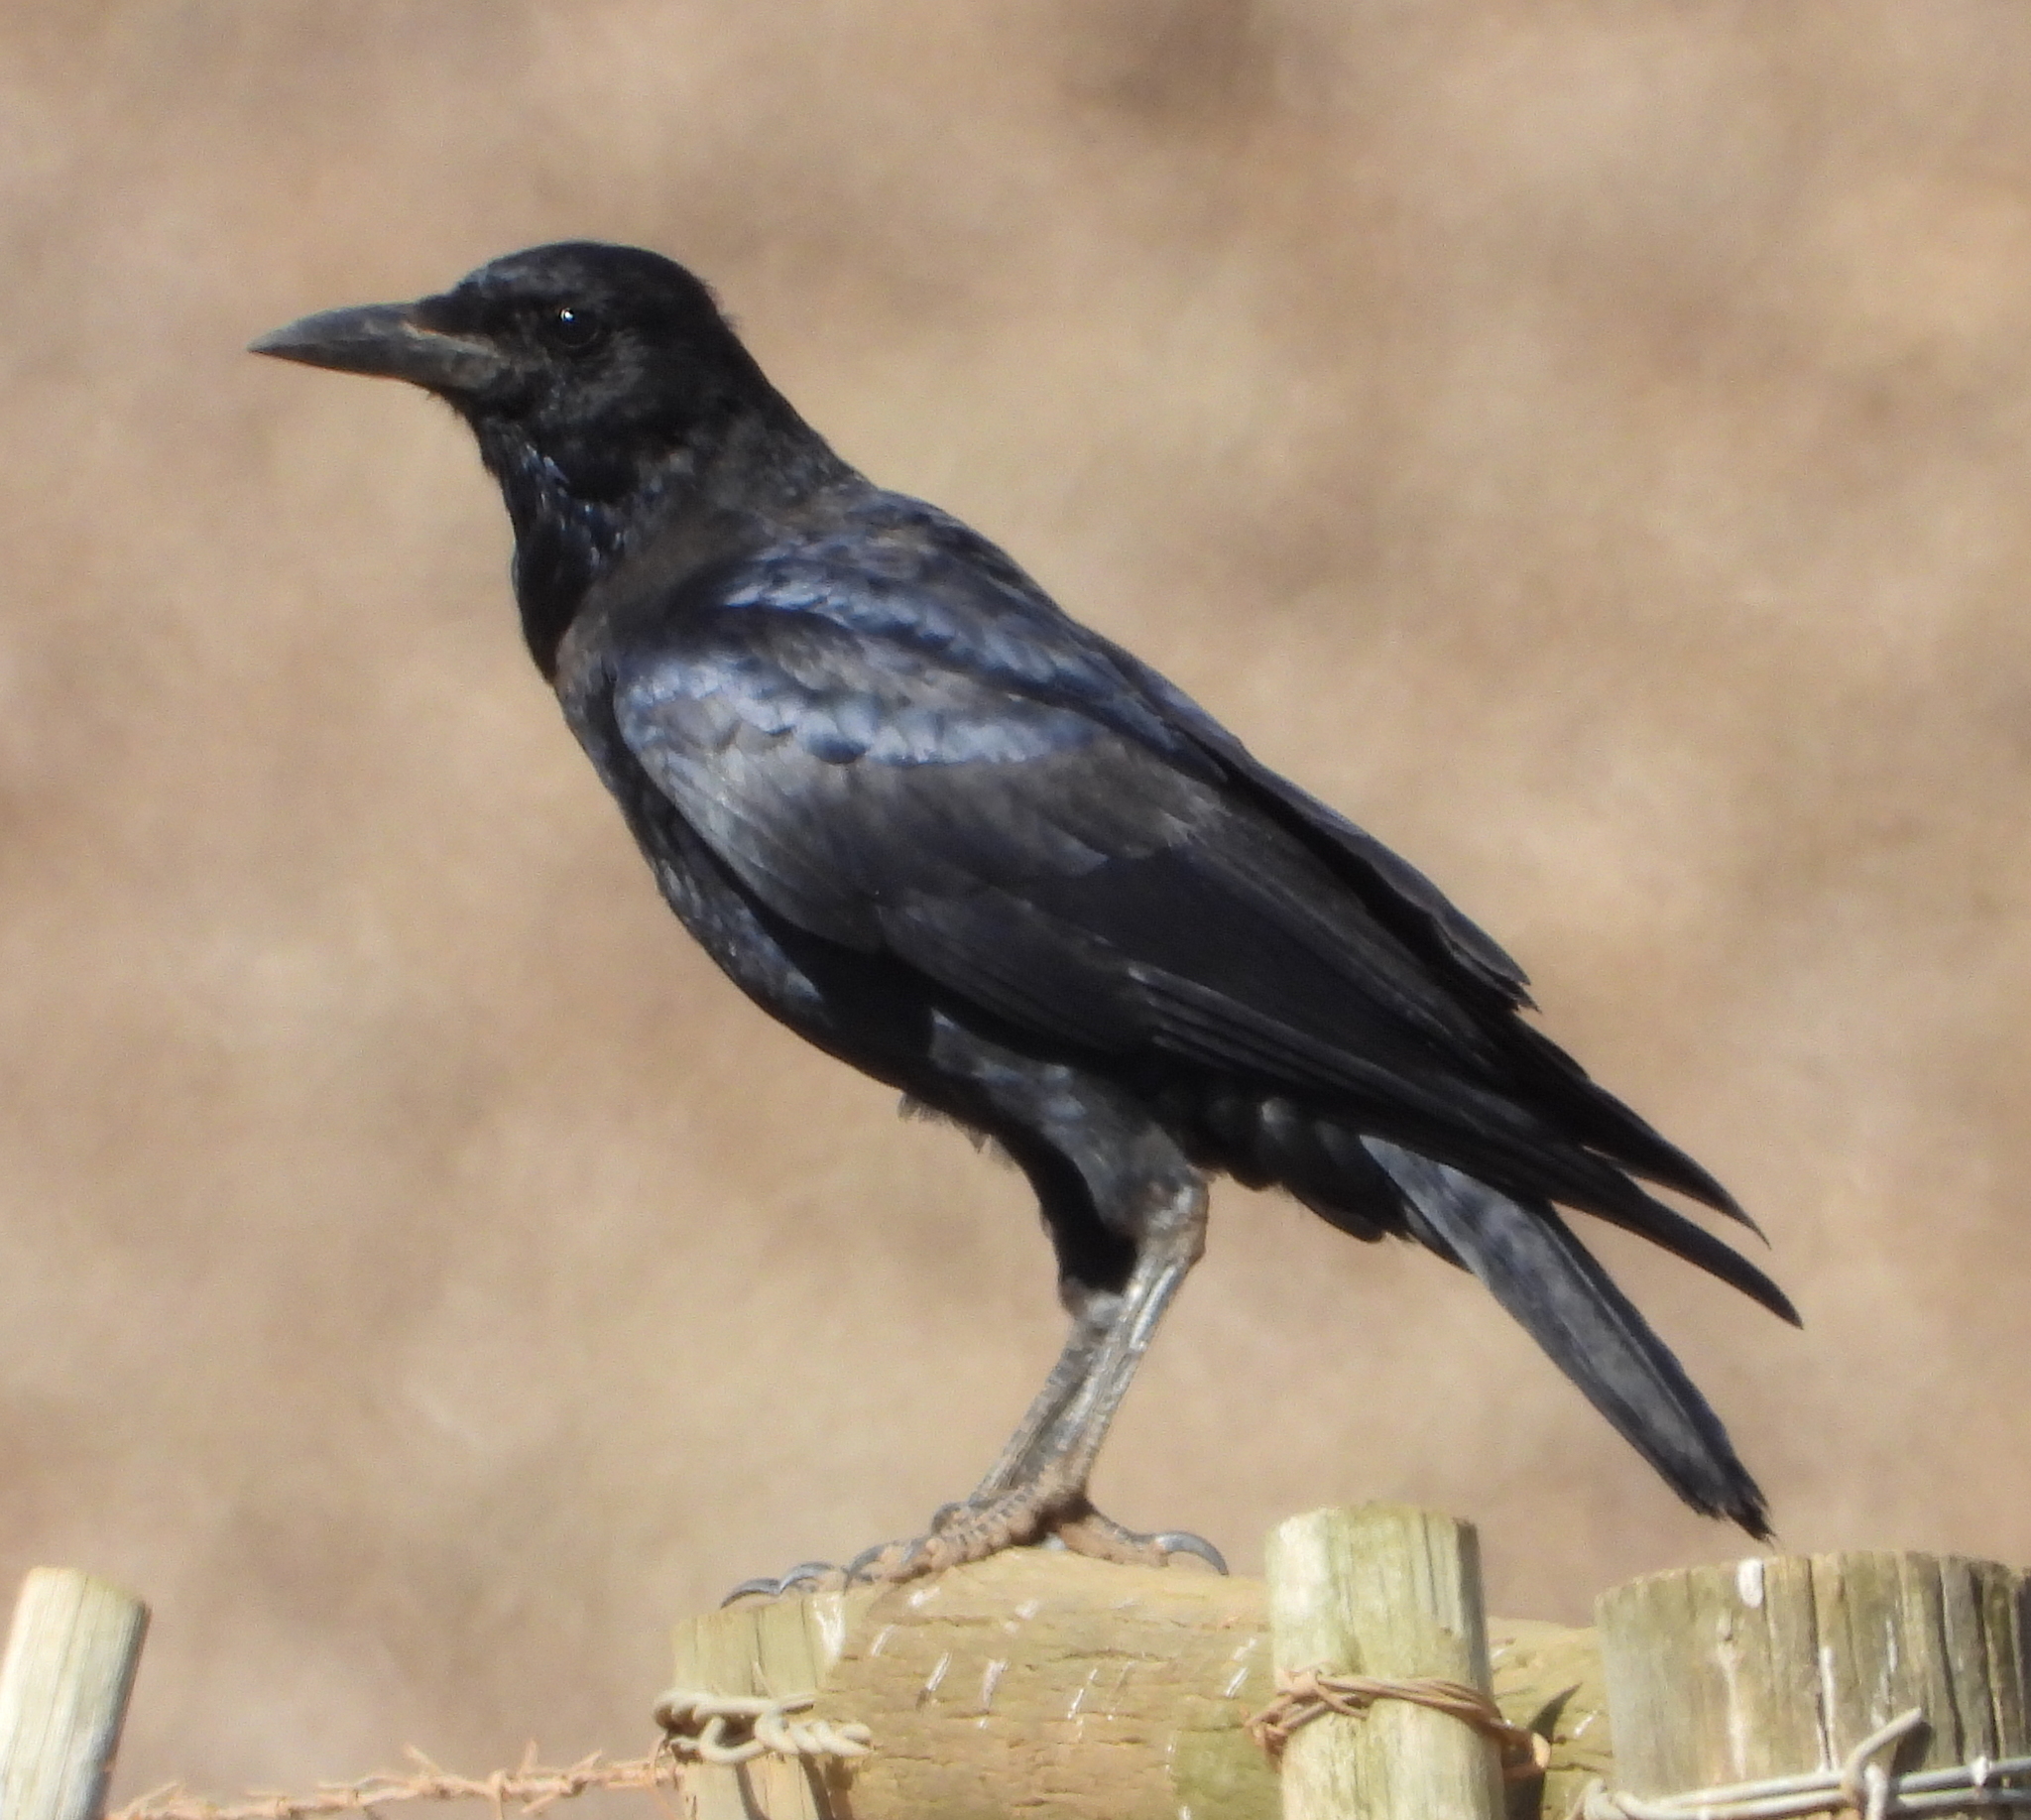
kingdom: Animalia
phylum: Chordata
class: Aves
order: Passeriformes
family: Corvidae
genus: Corvus
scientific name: Corvus capensis
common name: Cape crow
